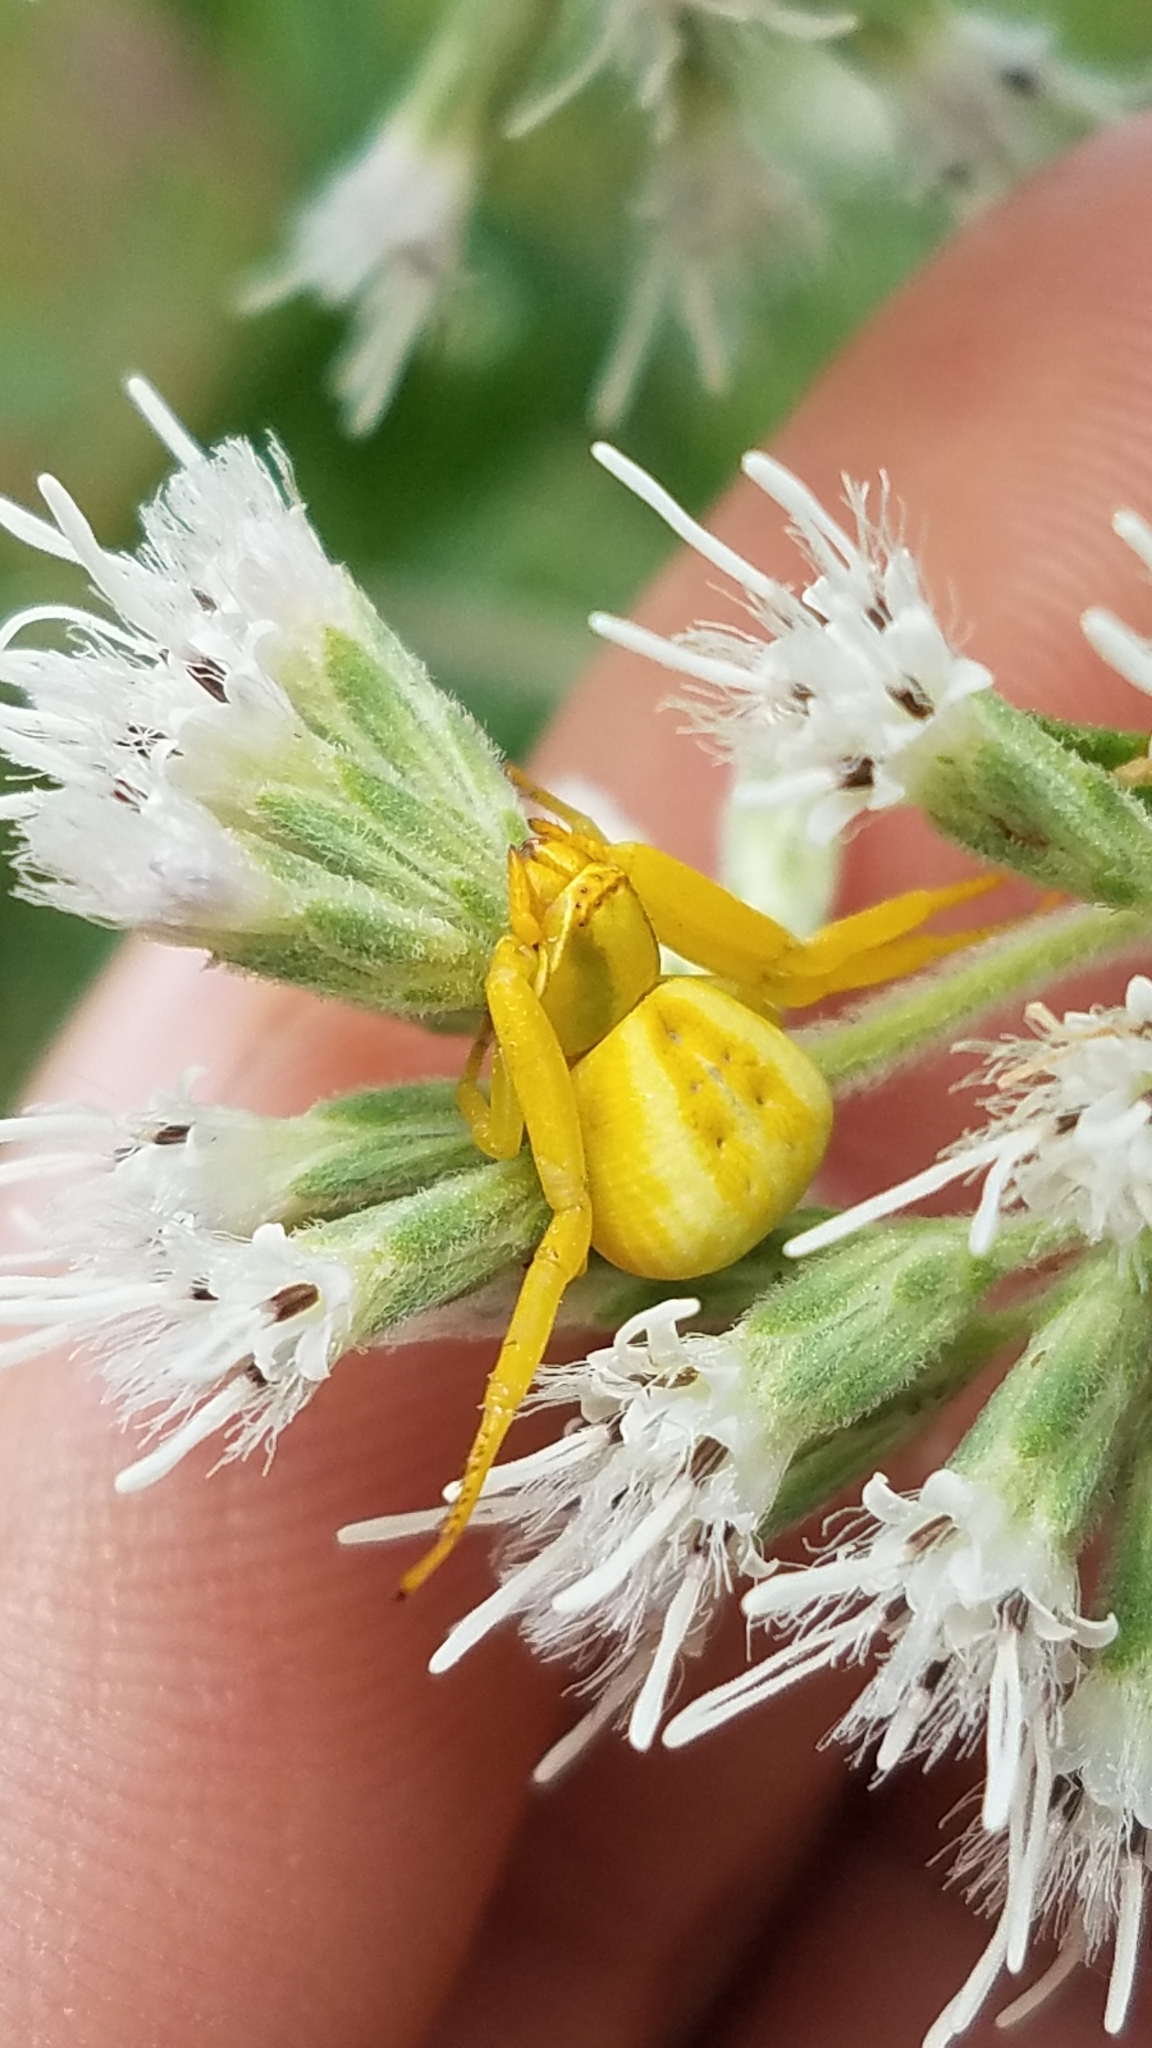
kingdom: Animalia
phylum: Arthropoda
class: Arachnida
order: Araneae
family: Thomisidae
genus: Misumenoides
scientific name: Misumenoides formosipes
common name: White-banded crab spider
